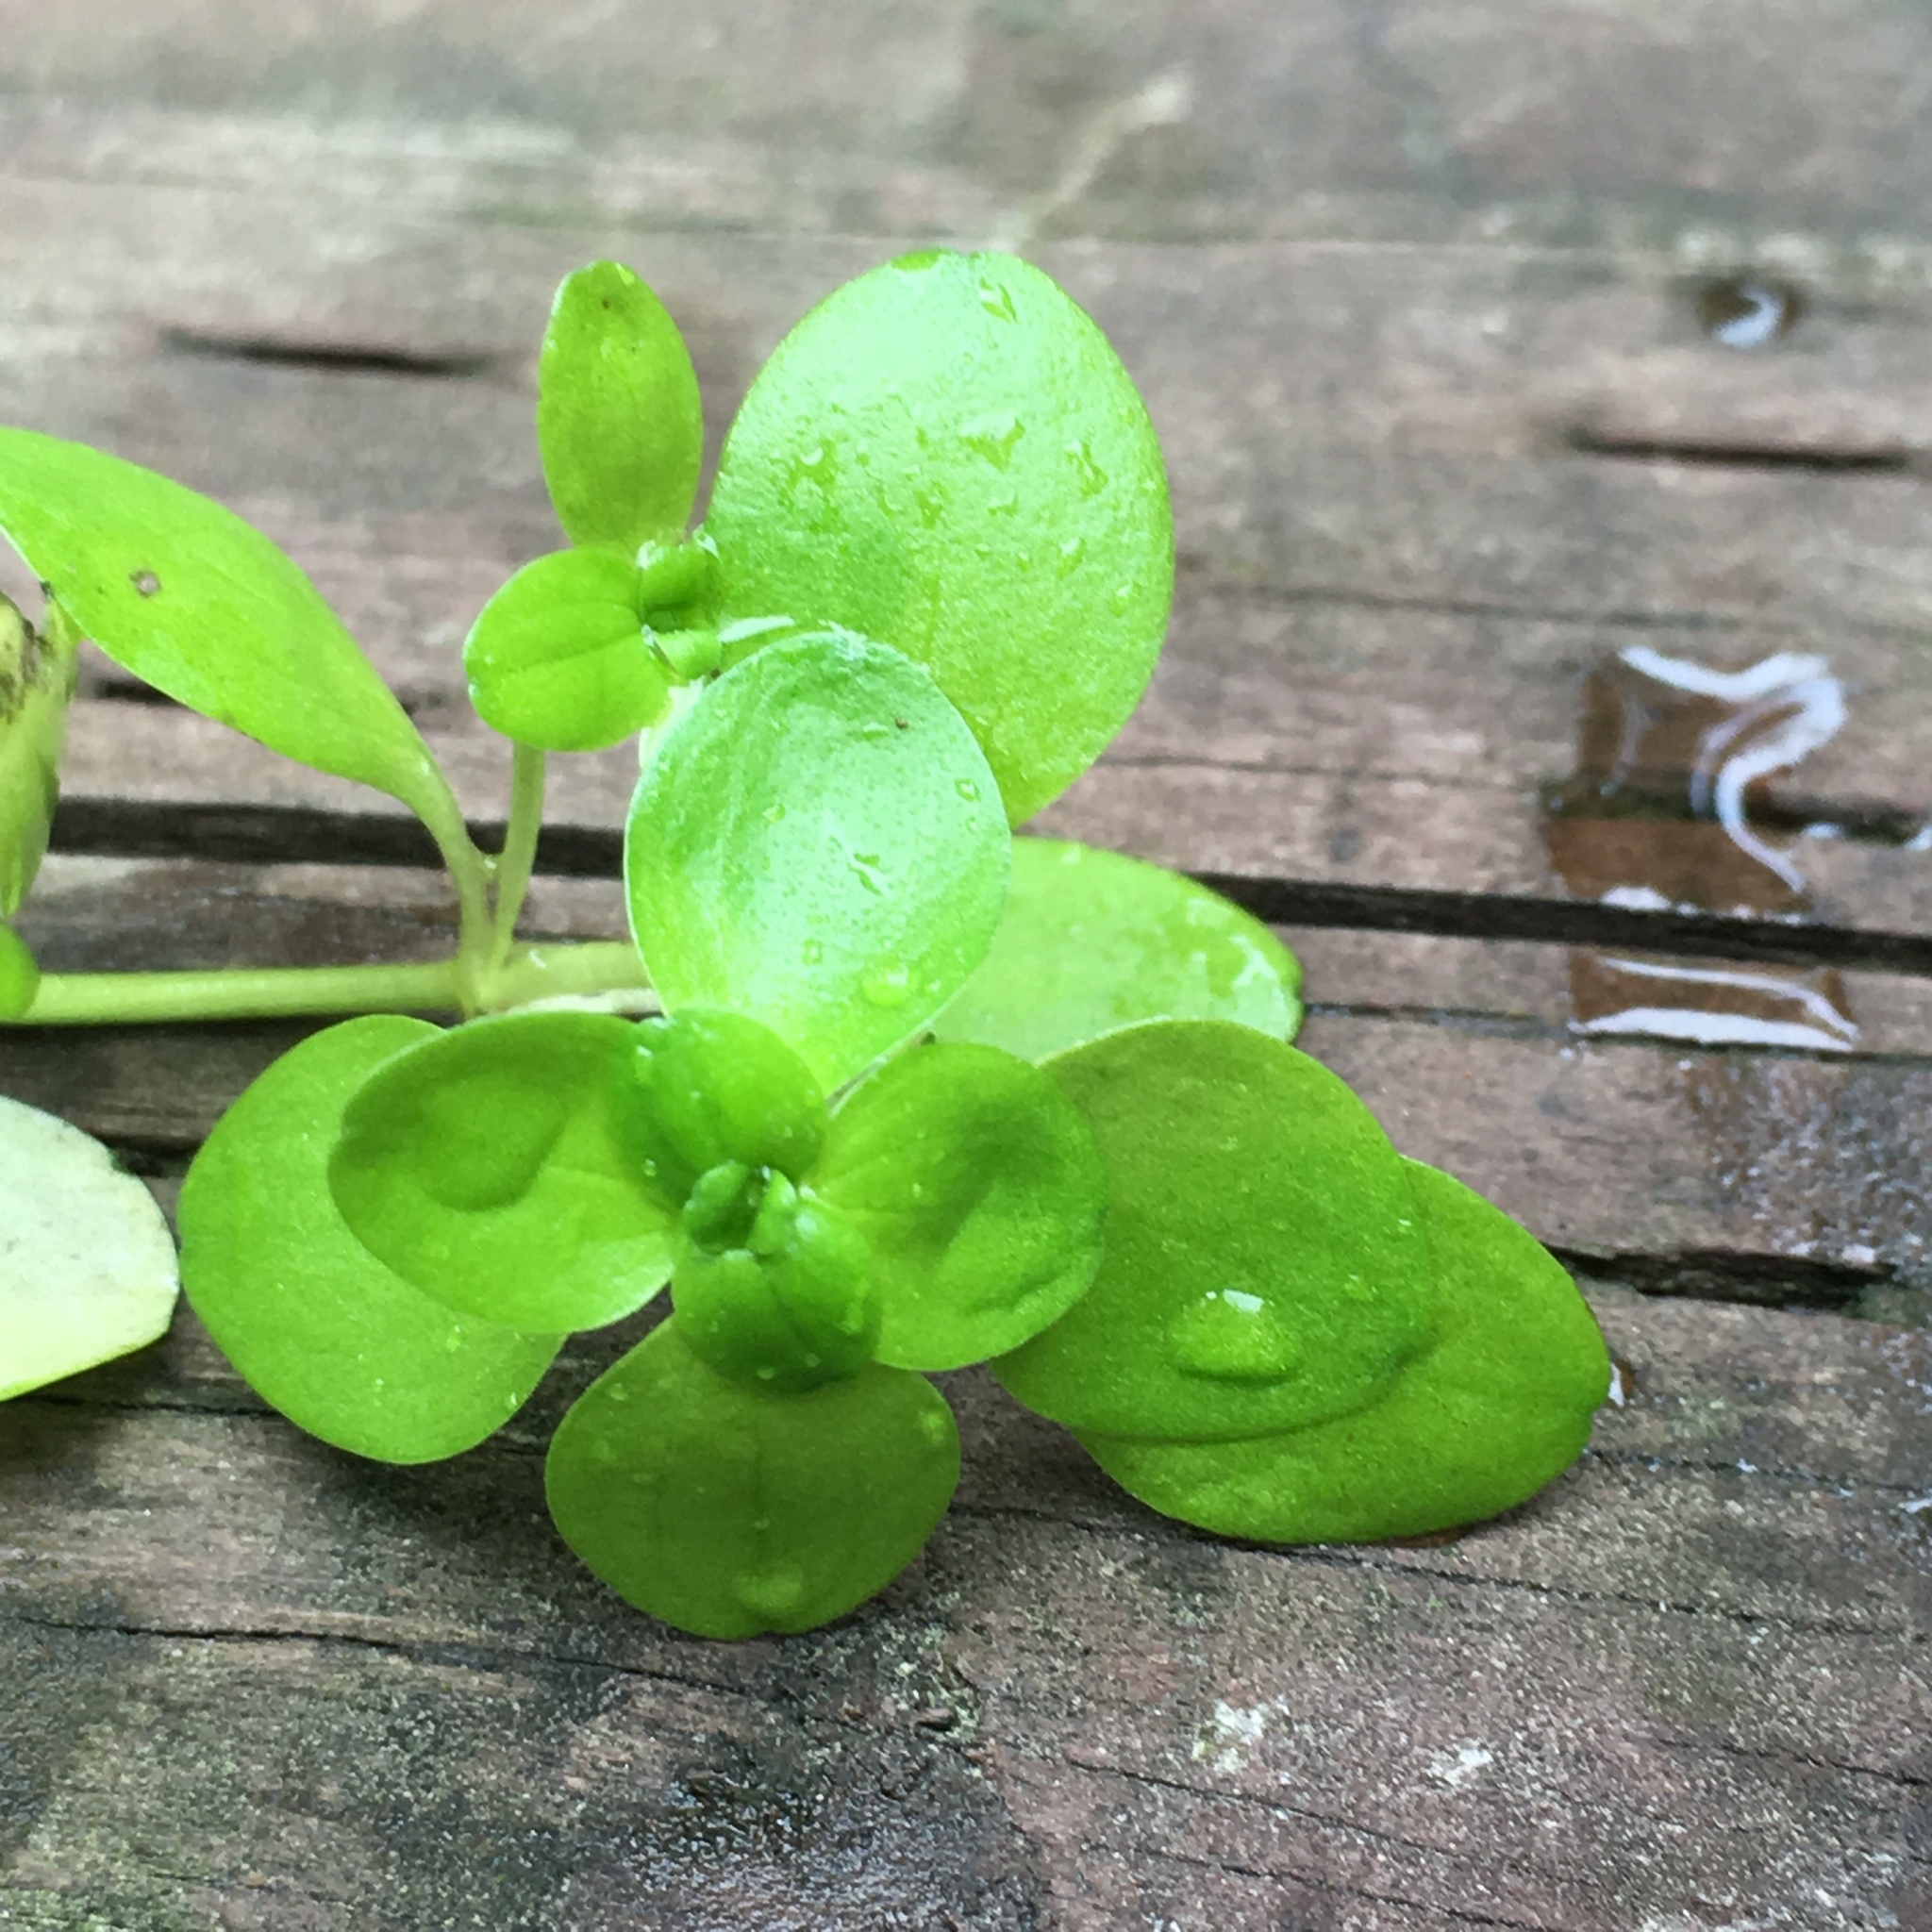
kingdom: Plantae
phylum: Tracheophyta
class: Magnoliopsida
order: Lamiales
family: Plantaginaceae
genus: Callitriche
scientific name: Callitriche stagnalis
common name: Common water-starwort
